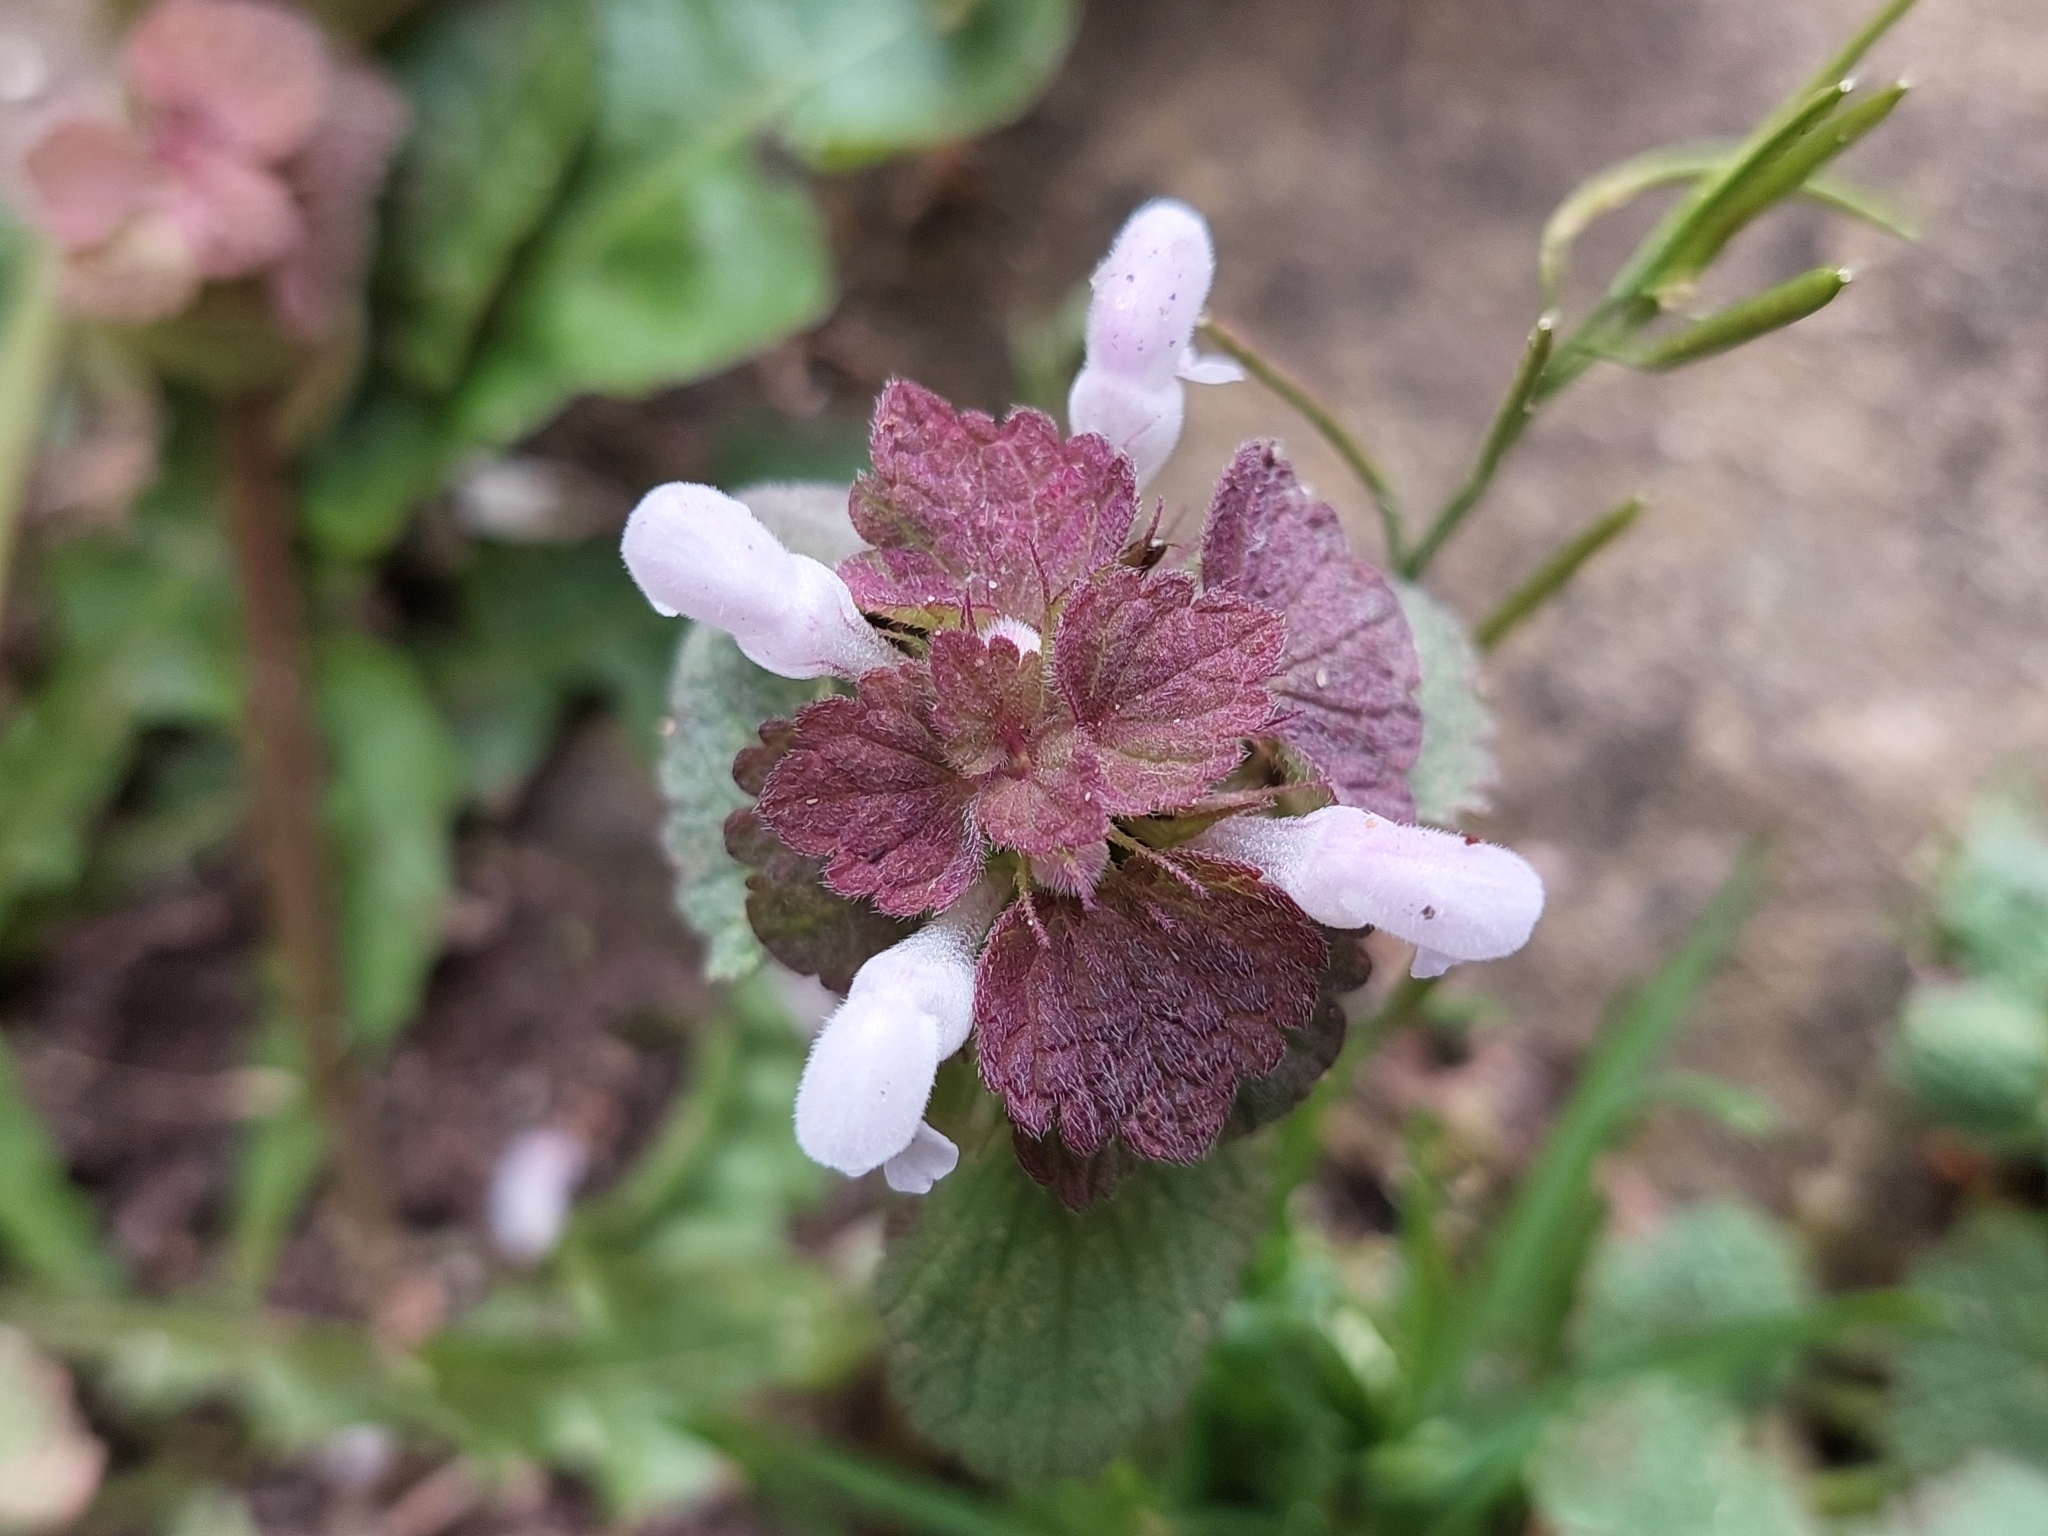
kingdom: Plantae
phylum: Tracheophyta
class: Magnoliopsida
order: Lamiales
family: Lamiaceae
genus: Lamium
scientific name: Lamium purpureum
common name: Red dead-nettle
